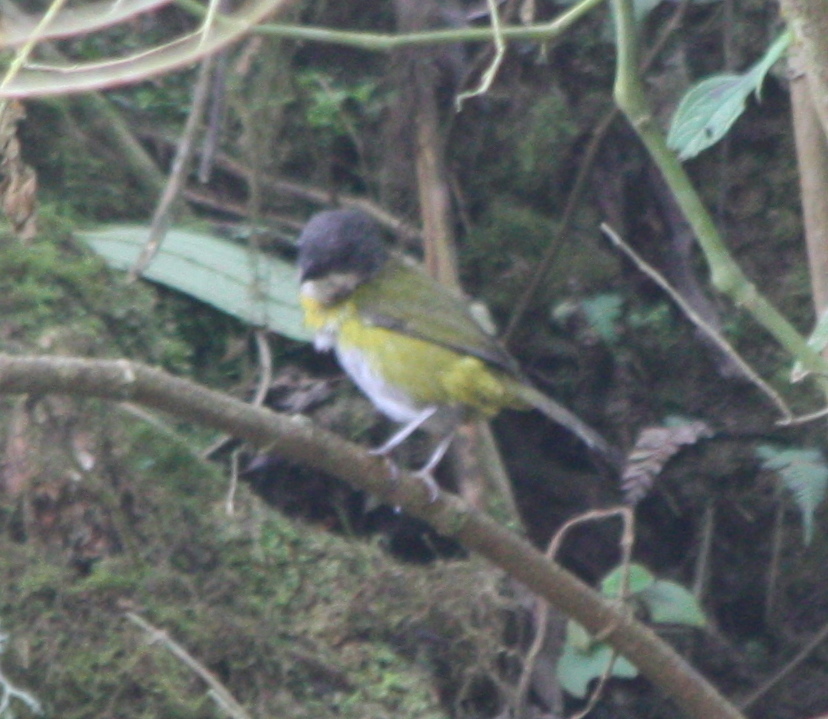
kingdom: Animalia
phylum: Chordata
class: Aves
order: Passeriformes
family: Passerellidae
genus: Chlorospingus
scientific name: Chlorospingus canigularis
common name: Ashy-throated bush-tanager
